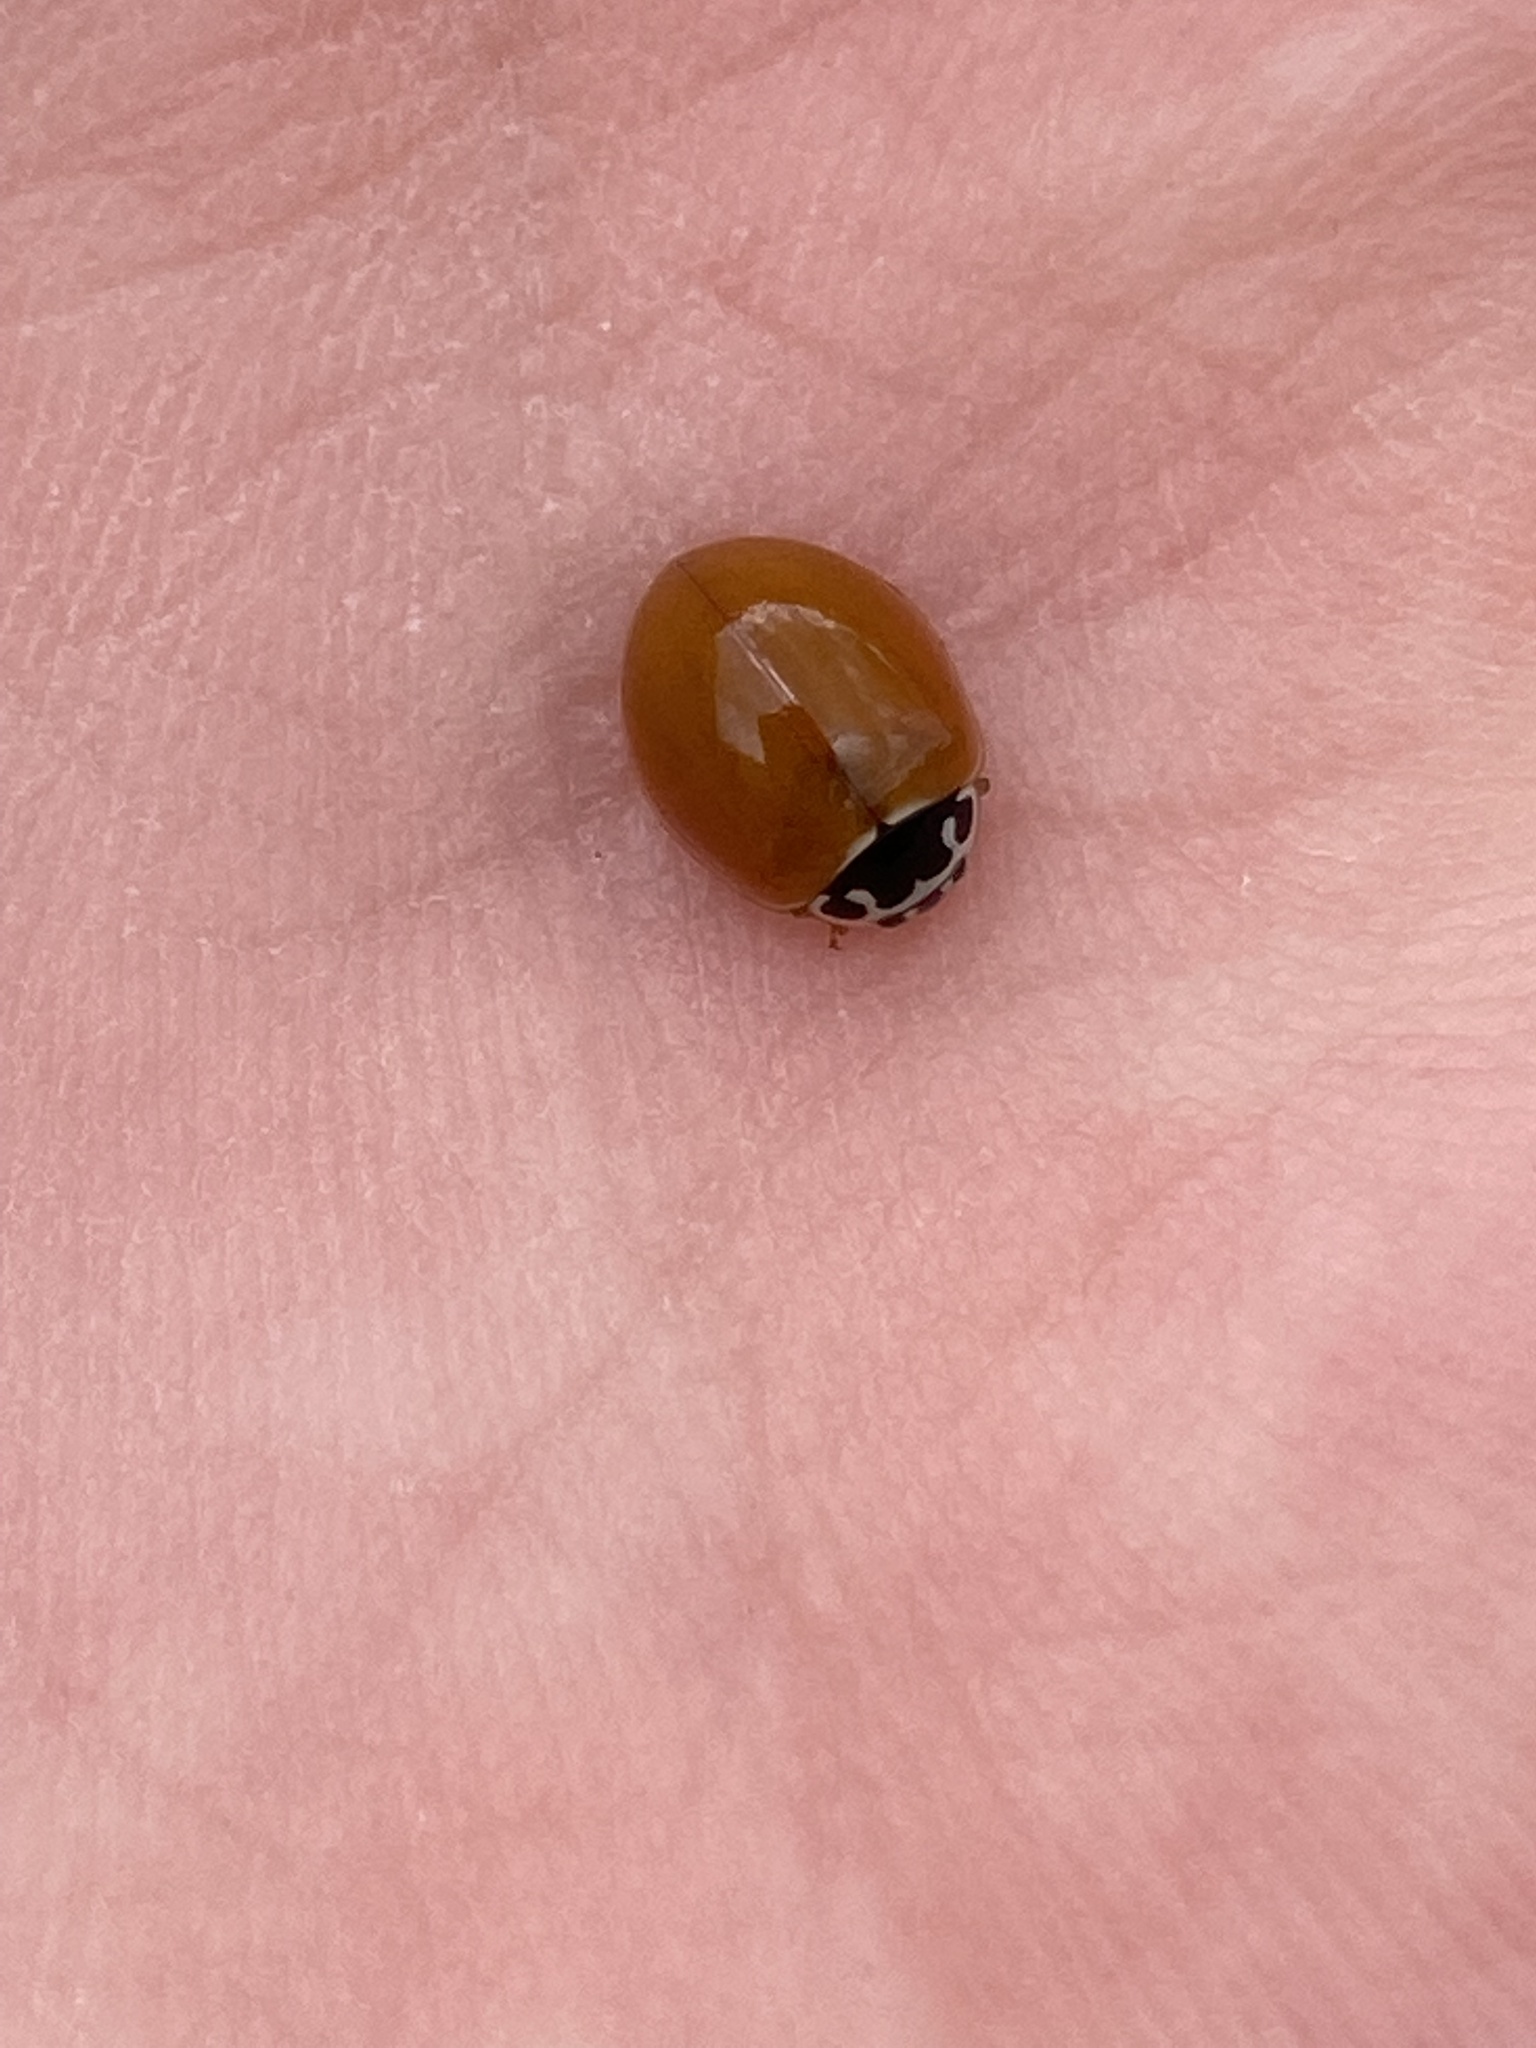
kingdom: Animalia
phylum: Arthropoda
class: Insecta
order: Coleoptera
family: Coccinellidae
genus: Cycloneda
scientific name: Cycloneda munda
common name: Polished lady beetle
